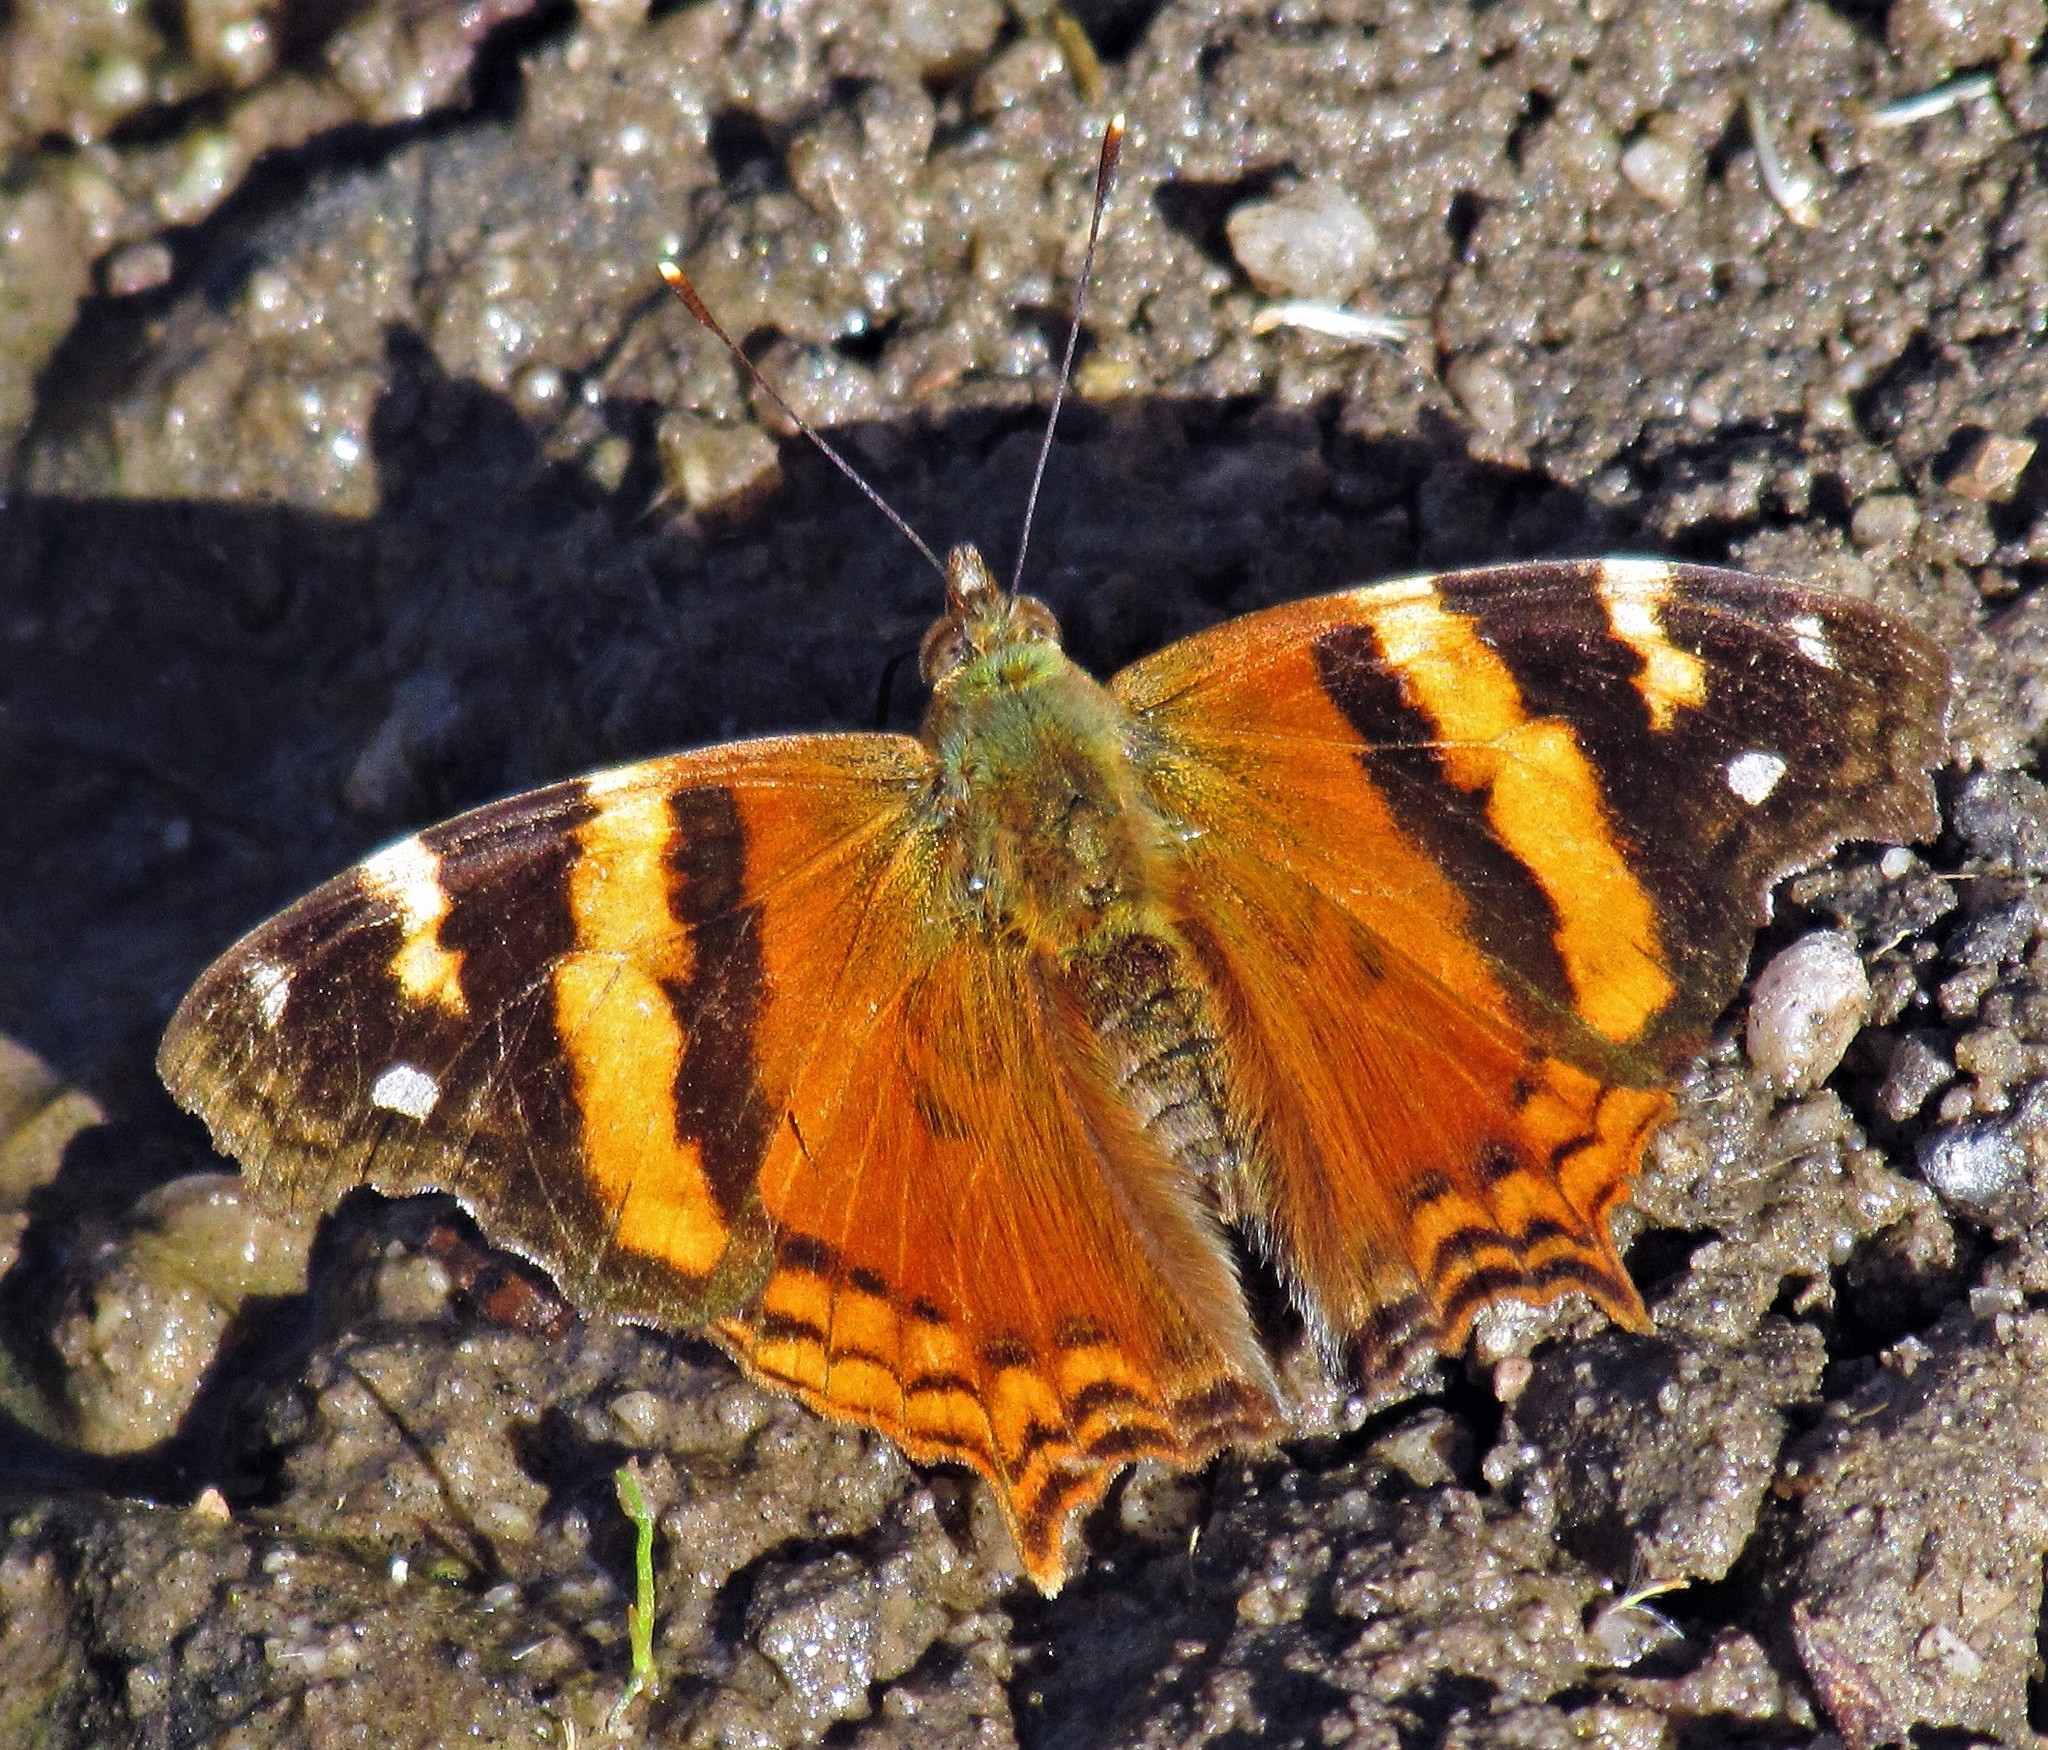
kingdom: Animalia
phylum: Arthropoda
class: Insecta
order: Lepidoptera
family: Nymphalidae
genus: Hypanartia
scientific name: Hypanartia bella
